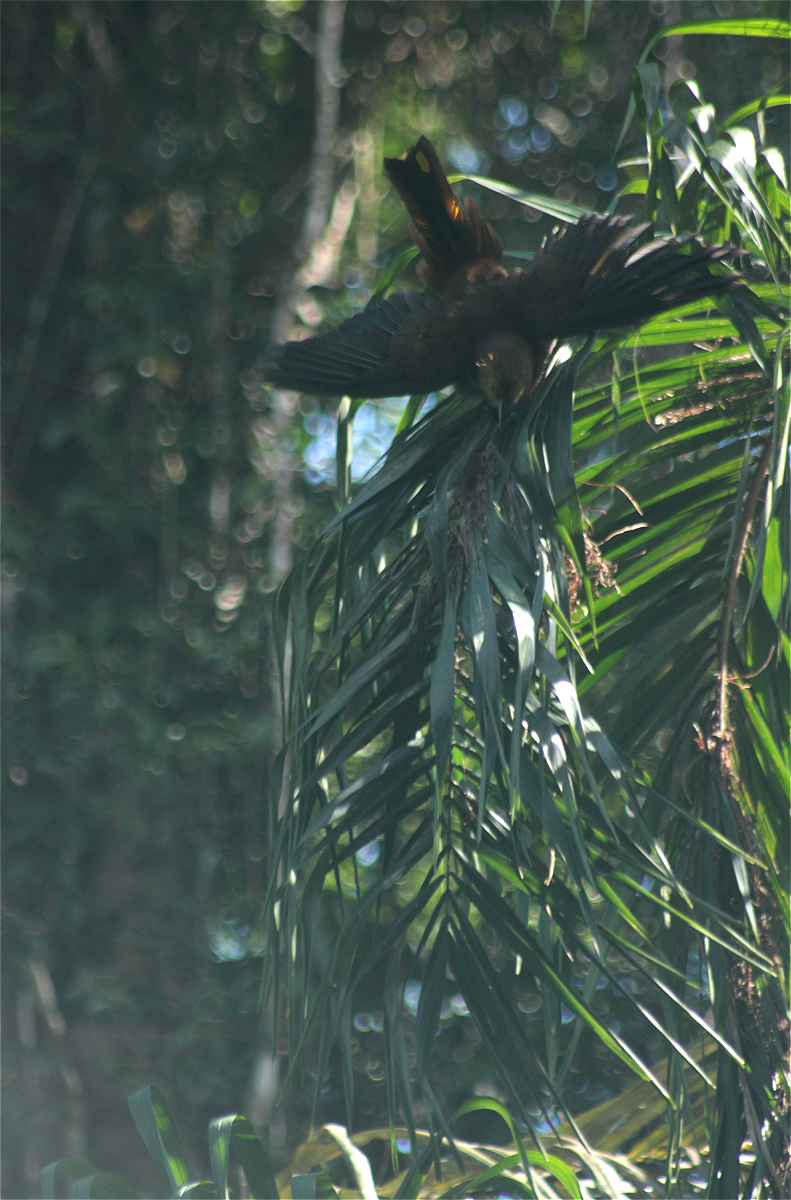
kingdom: Animalia
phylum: Chordata
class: Aves
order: Passeriformes
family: Icteridae
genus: Psarocolius
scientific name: Psarocolius angustifrons
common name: Russet-backed oropendola
